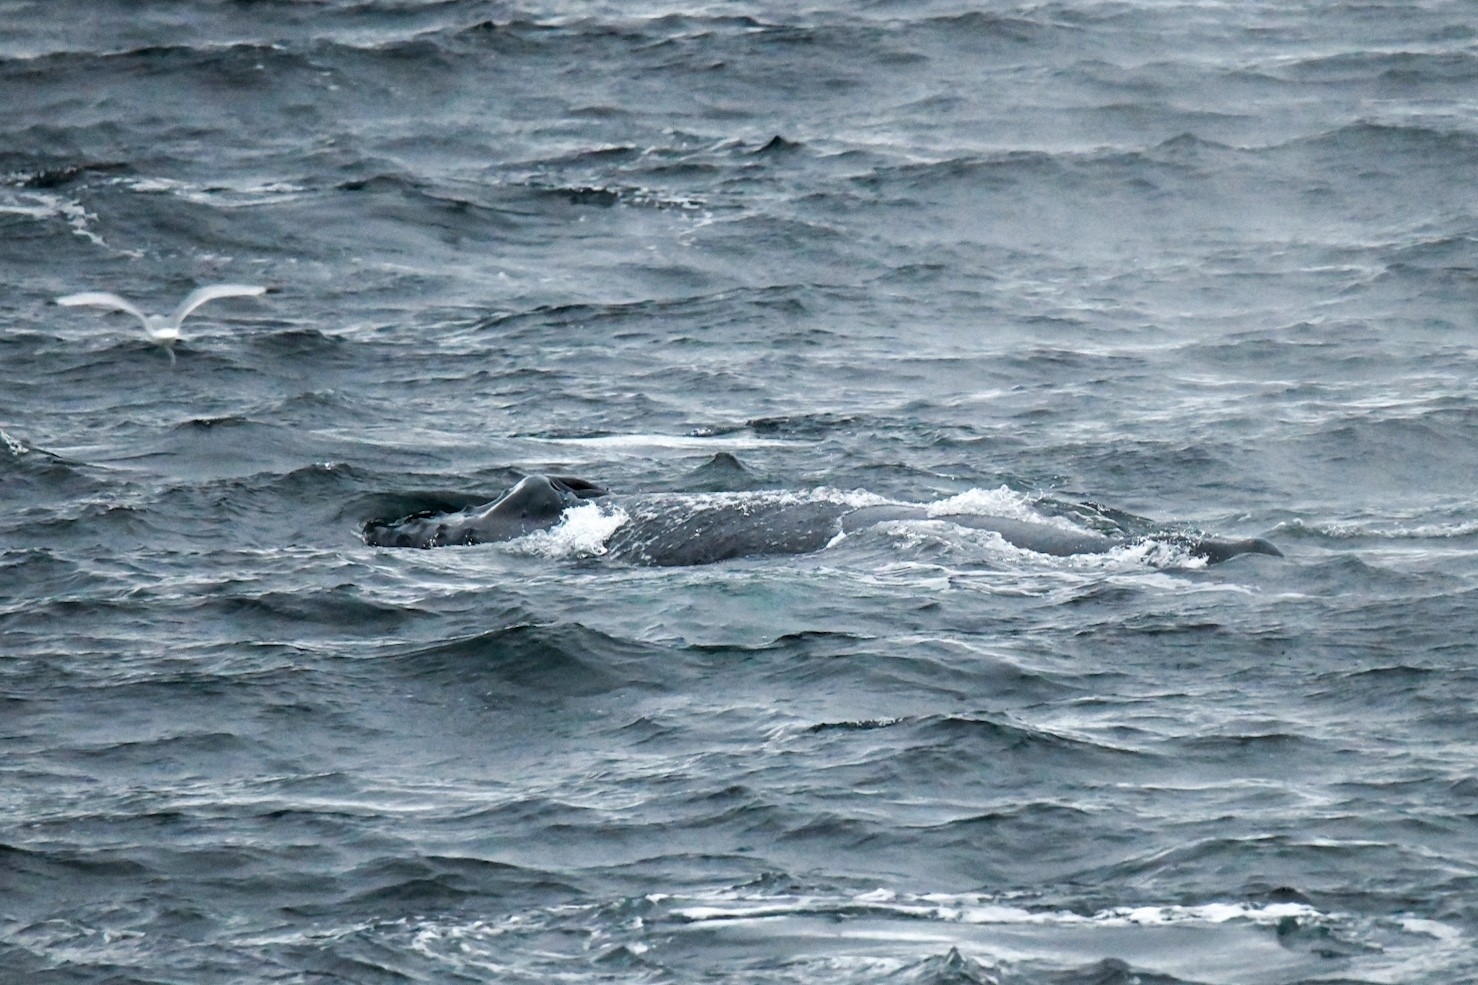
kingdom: Animalia
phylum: Chordata
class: Mammalia
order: Cetacea
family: Balaenopteridae
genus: Megaptera
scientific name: Megaptera novaeangliae
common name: Humpback whale
